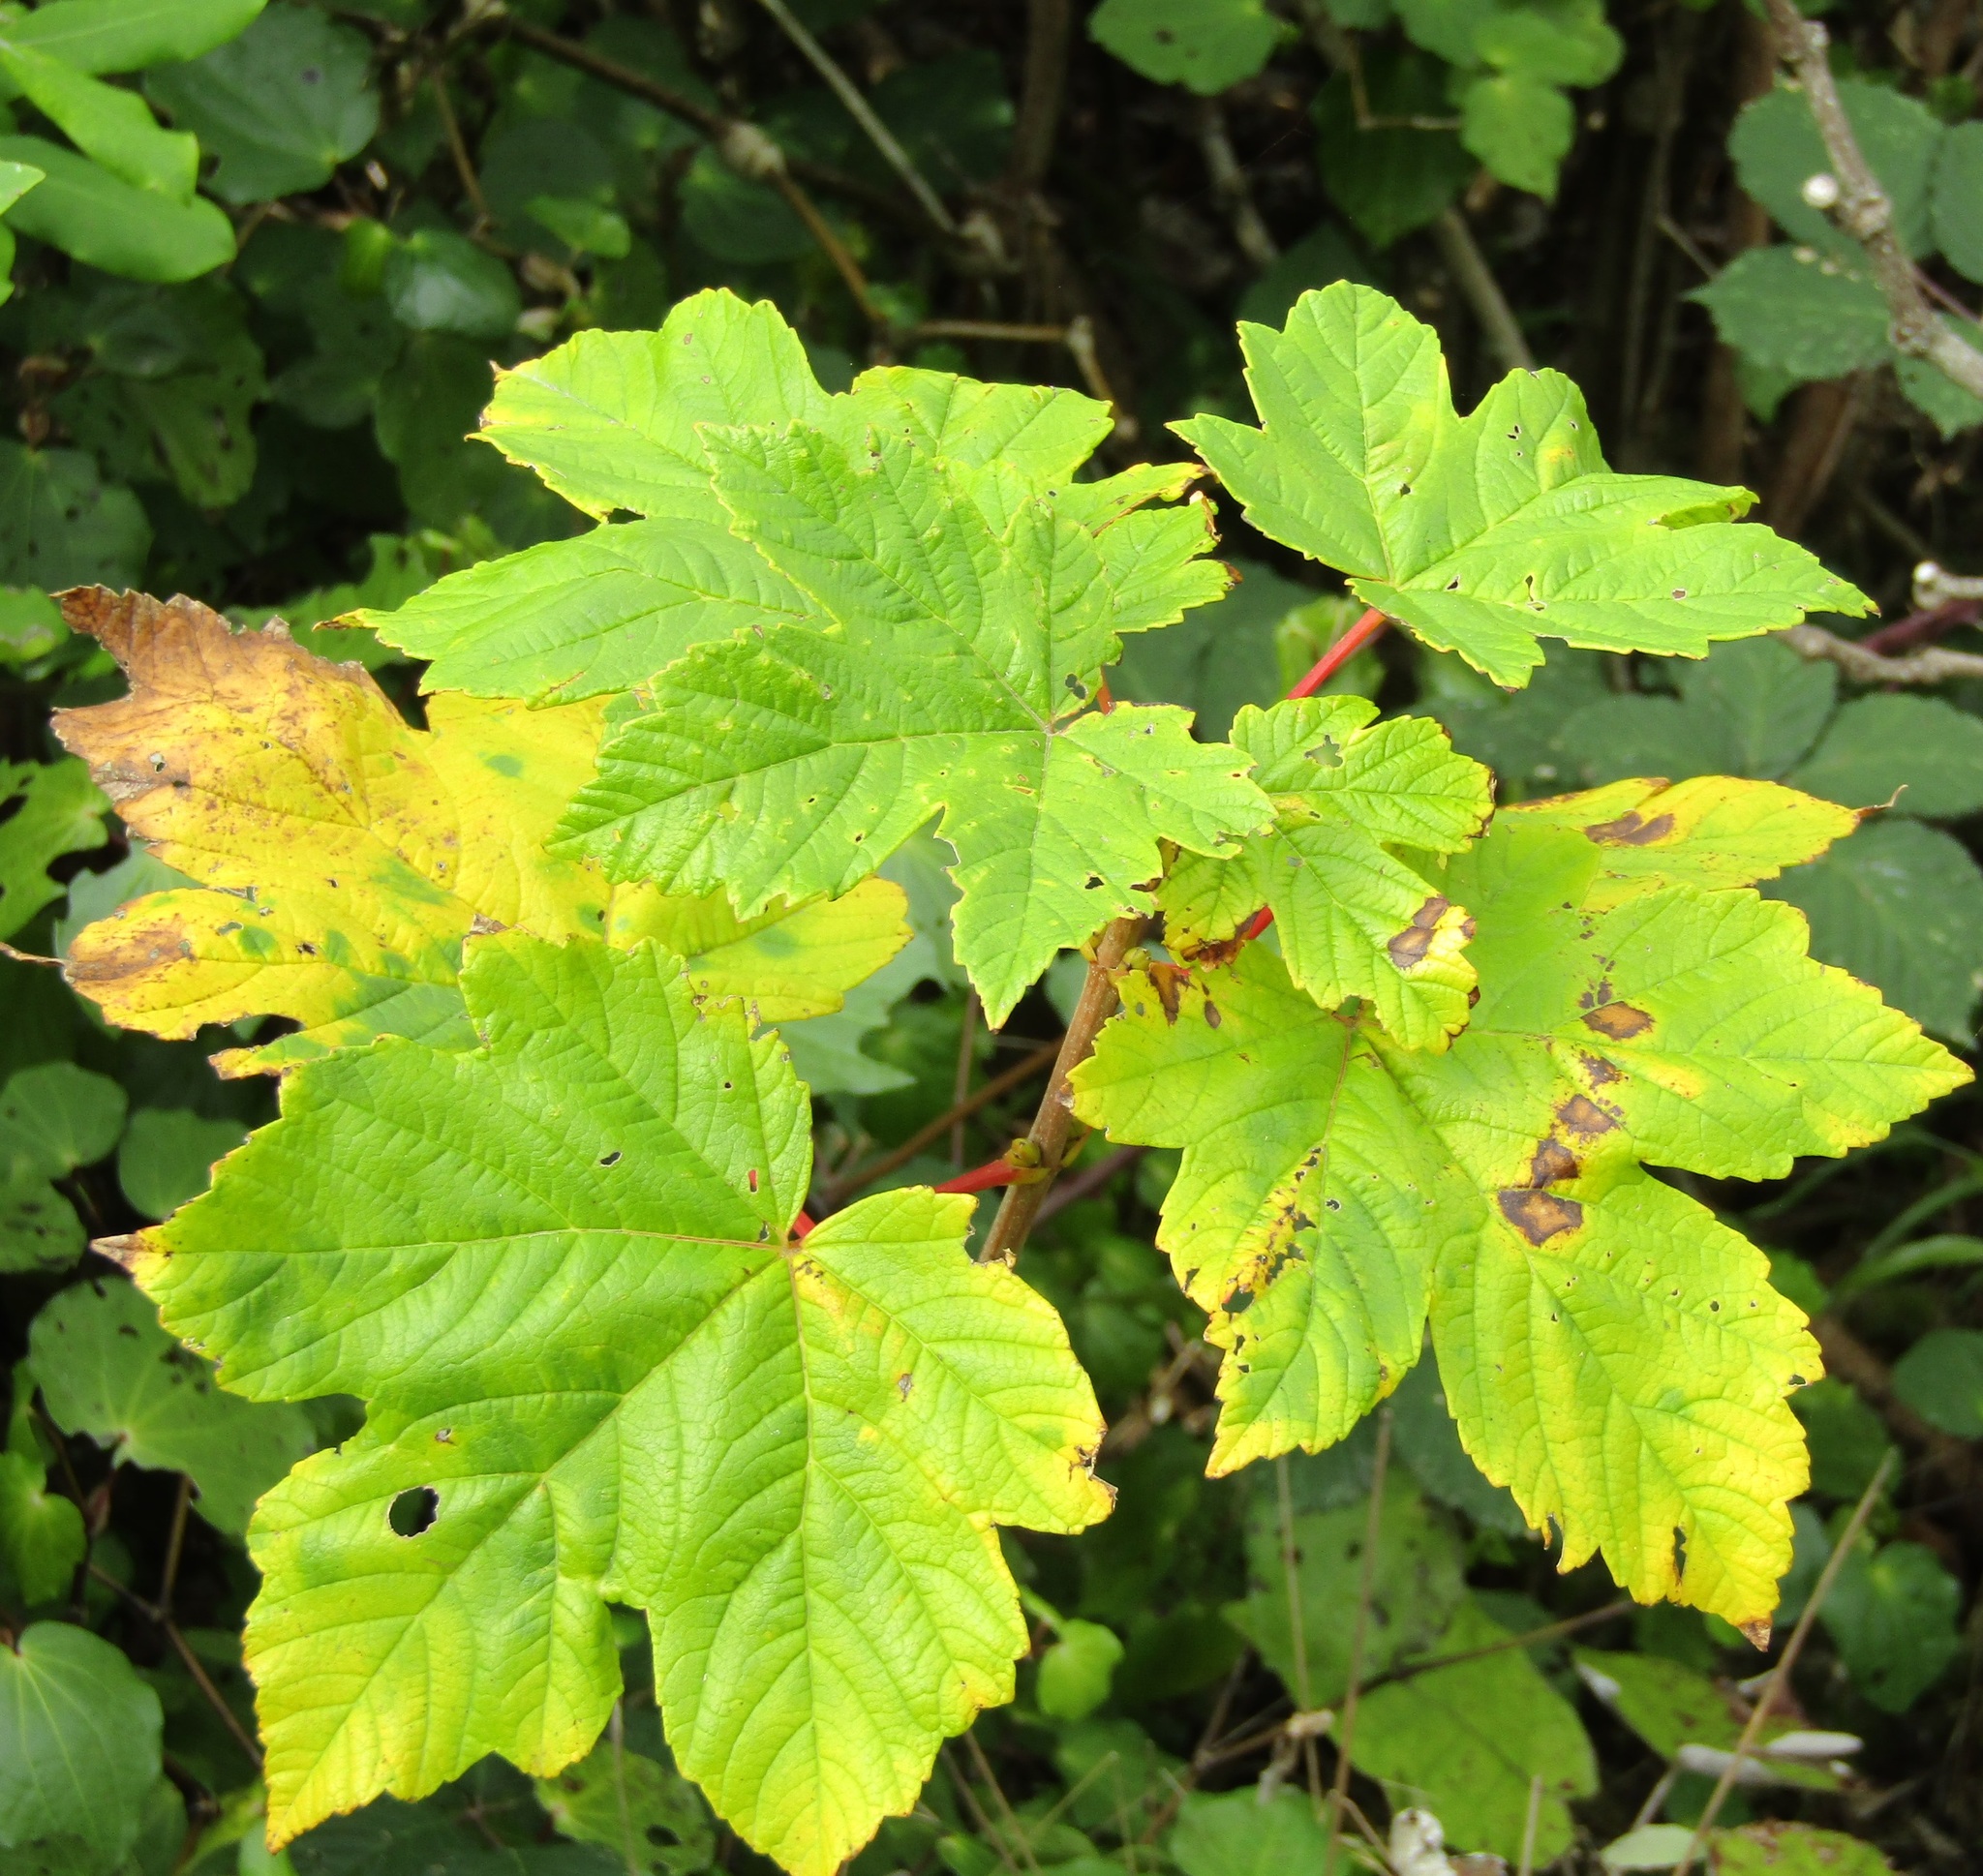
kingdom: Plantae
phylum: Tracheophyta
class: Magnoliopsida
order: Sapindales
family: Sapindaceae
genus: Acer
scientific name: Acer pseudoplatanus
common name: Sycamore
